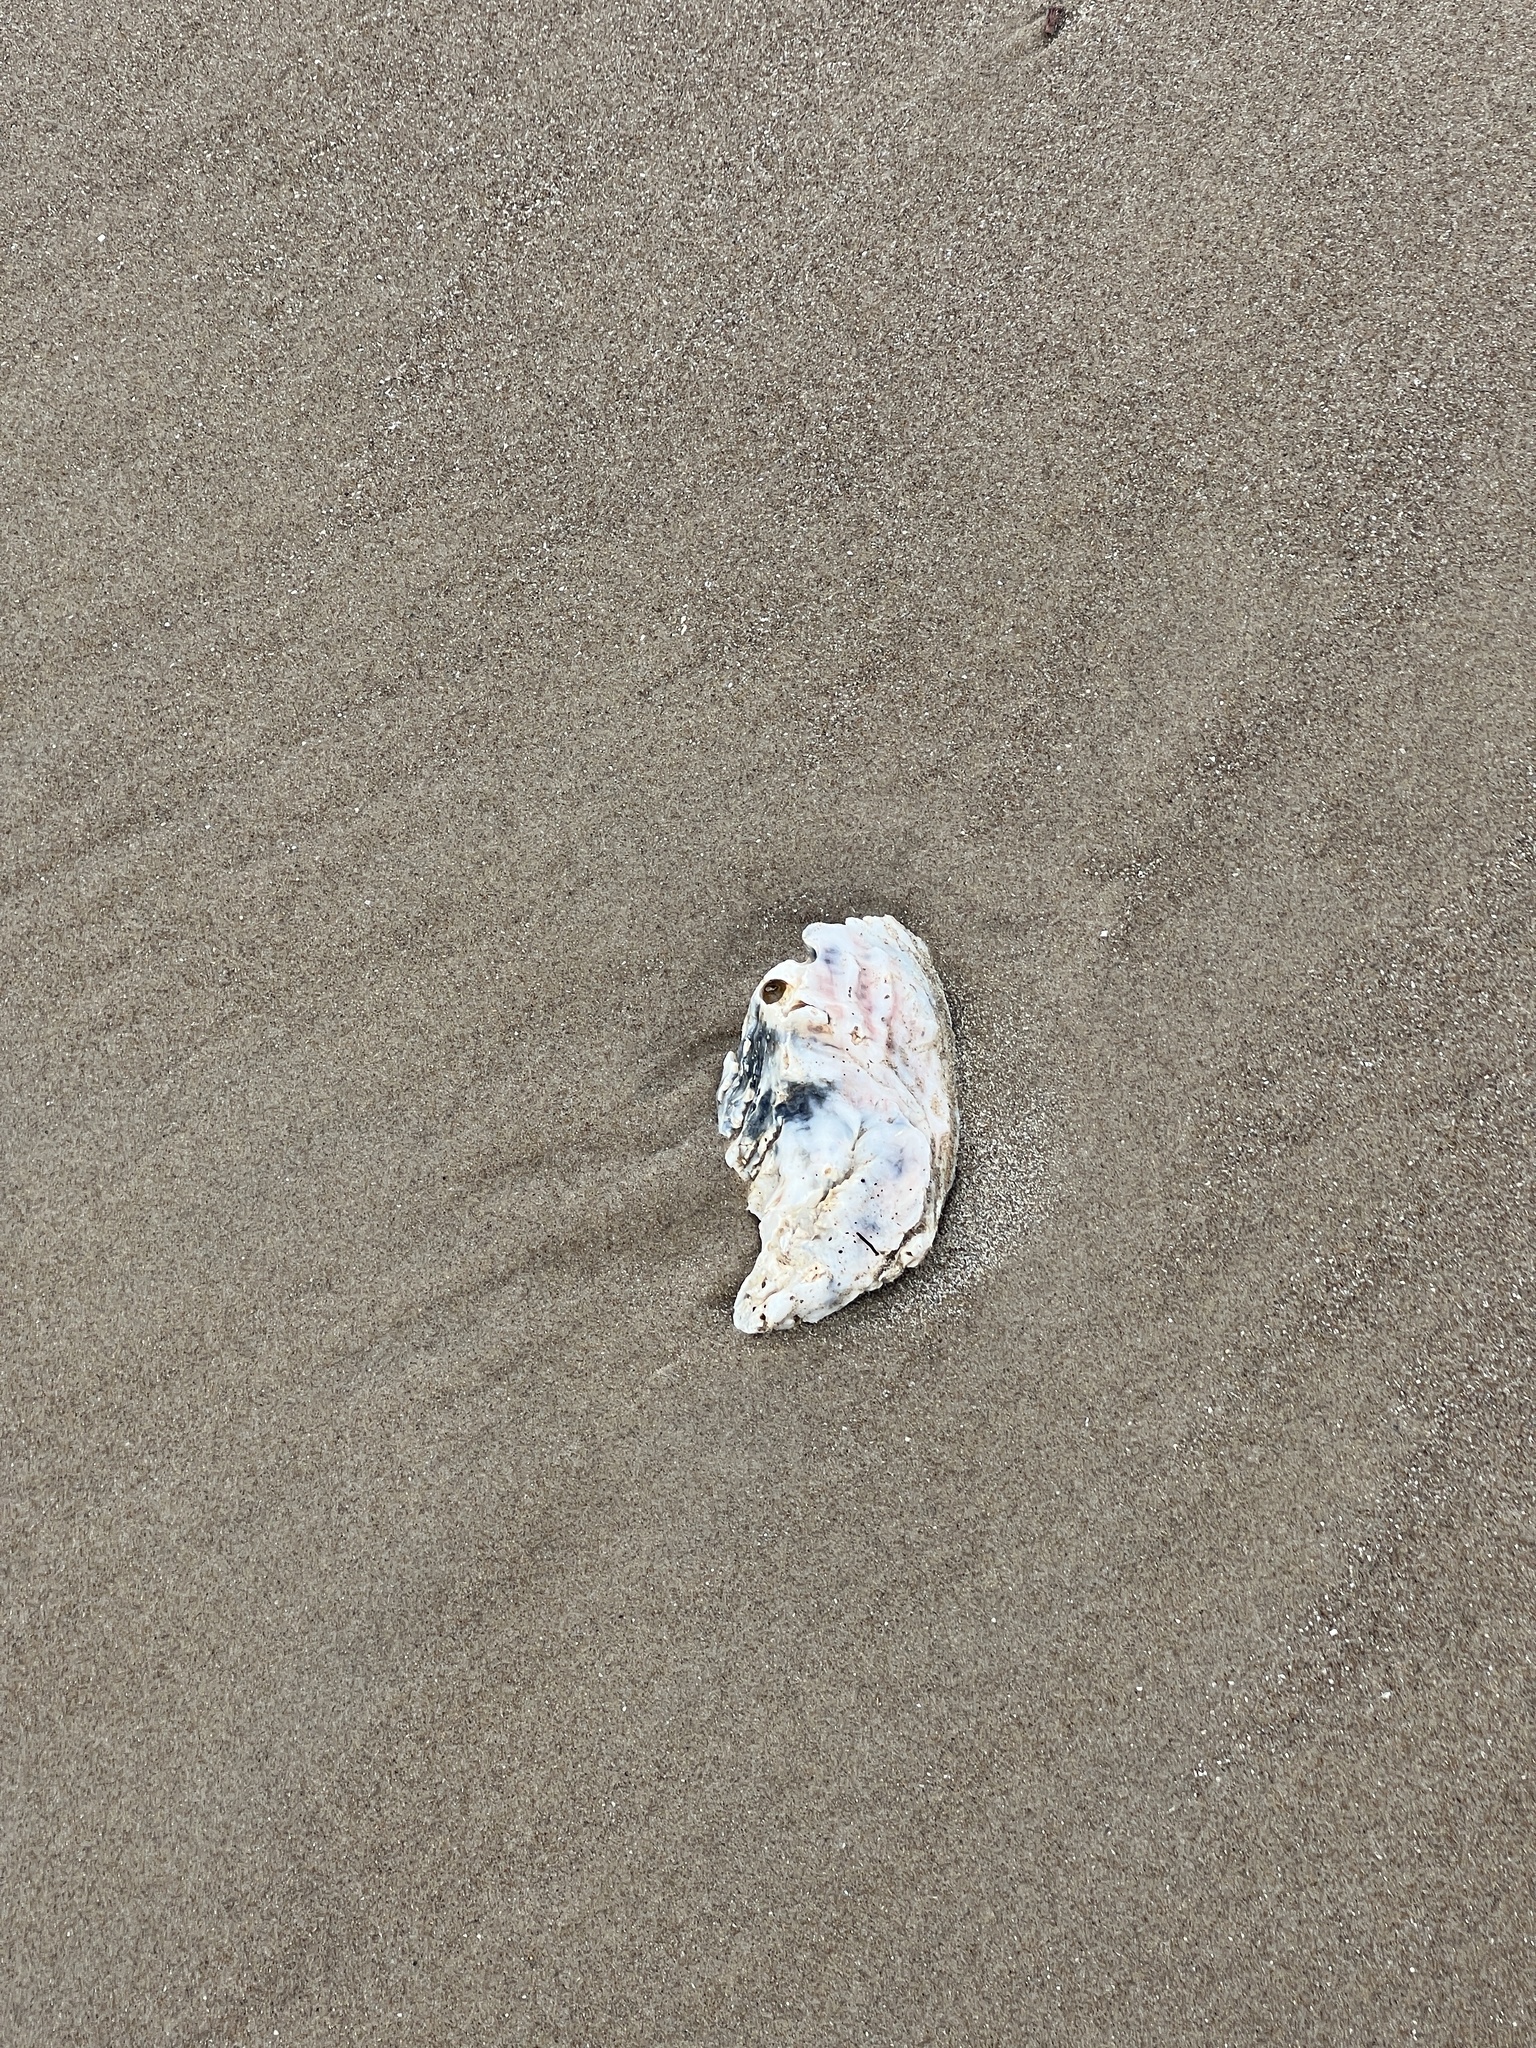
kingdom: Animalia
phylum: Mollusca
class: Bivalvia
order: Ostreida
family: Ostreidae
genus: Crassostrea
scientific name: Crassostrea virginica
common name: American oyster
